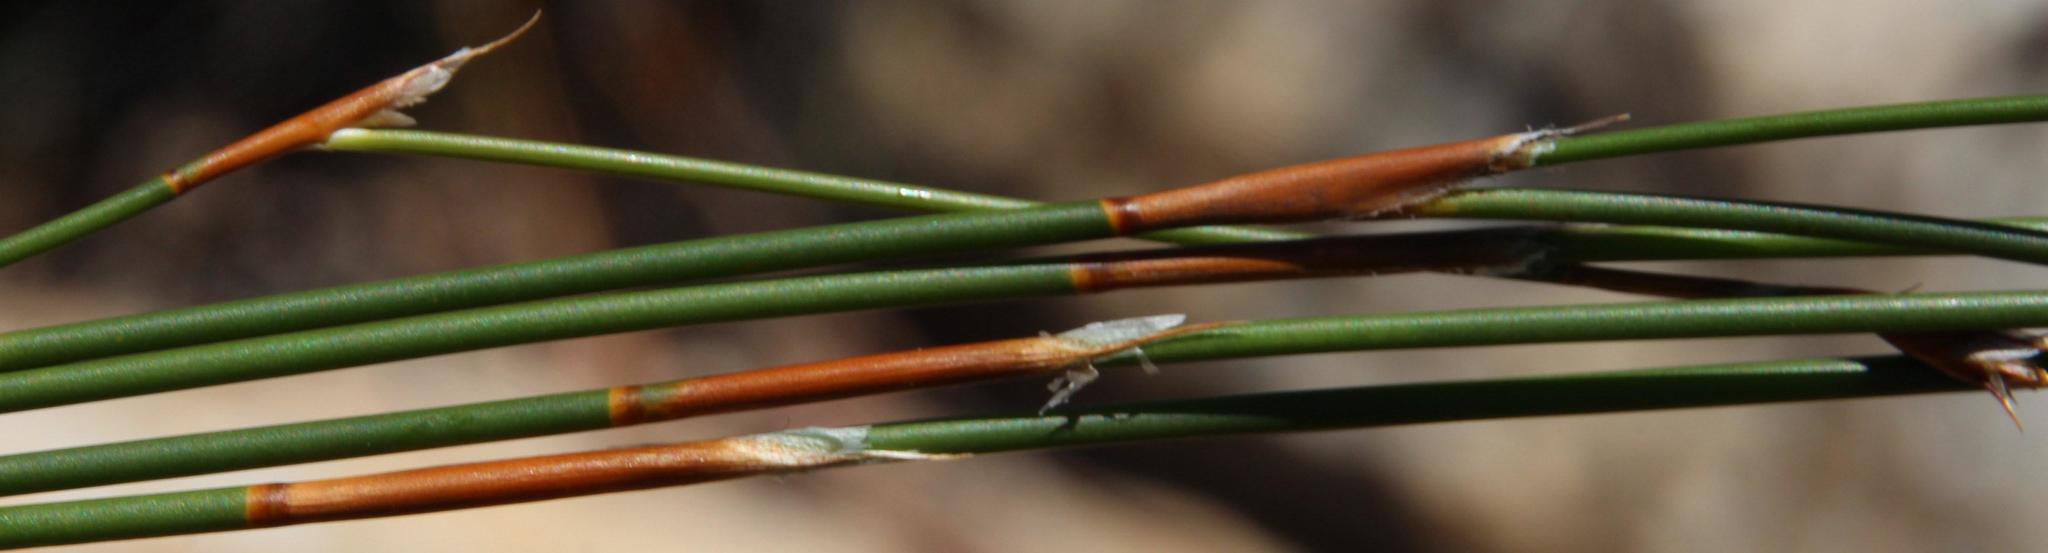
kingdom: Plantae
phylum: Tracheophyta
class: Liliopsida
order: Poales
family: Restionaceae
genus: Restio
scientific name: Restio virgeus
